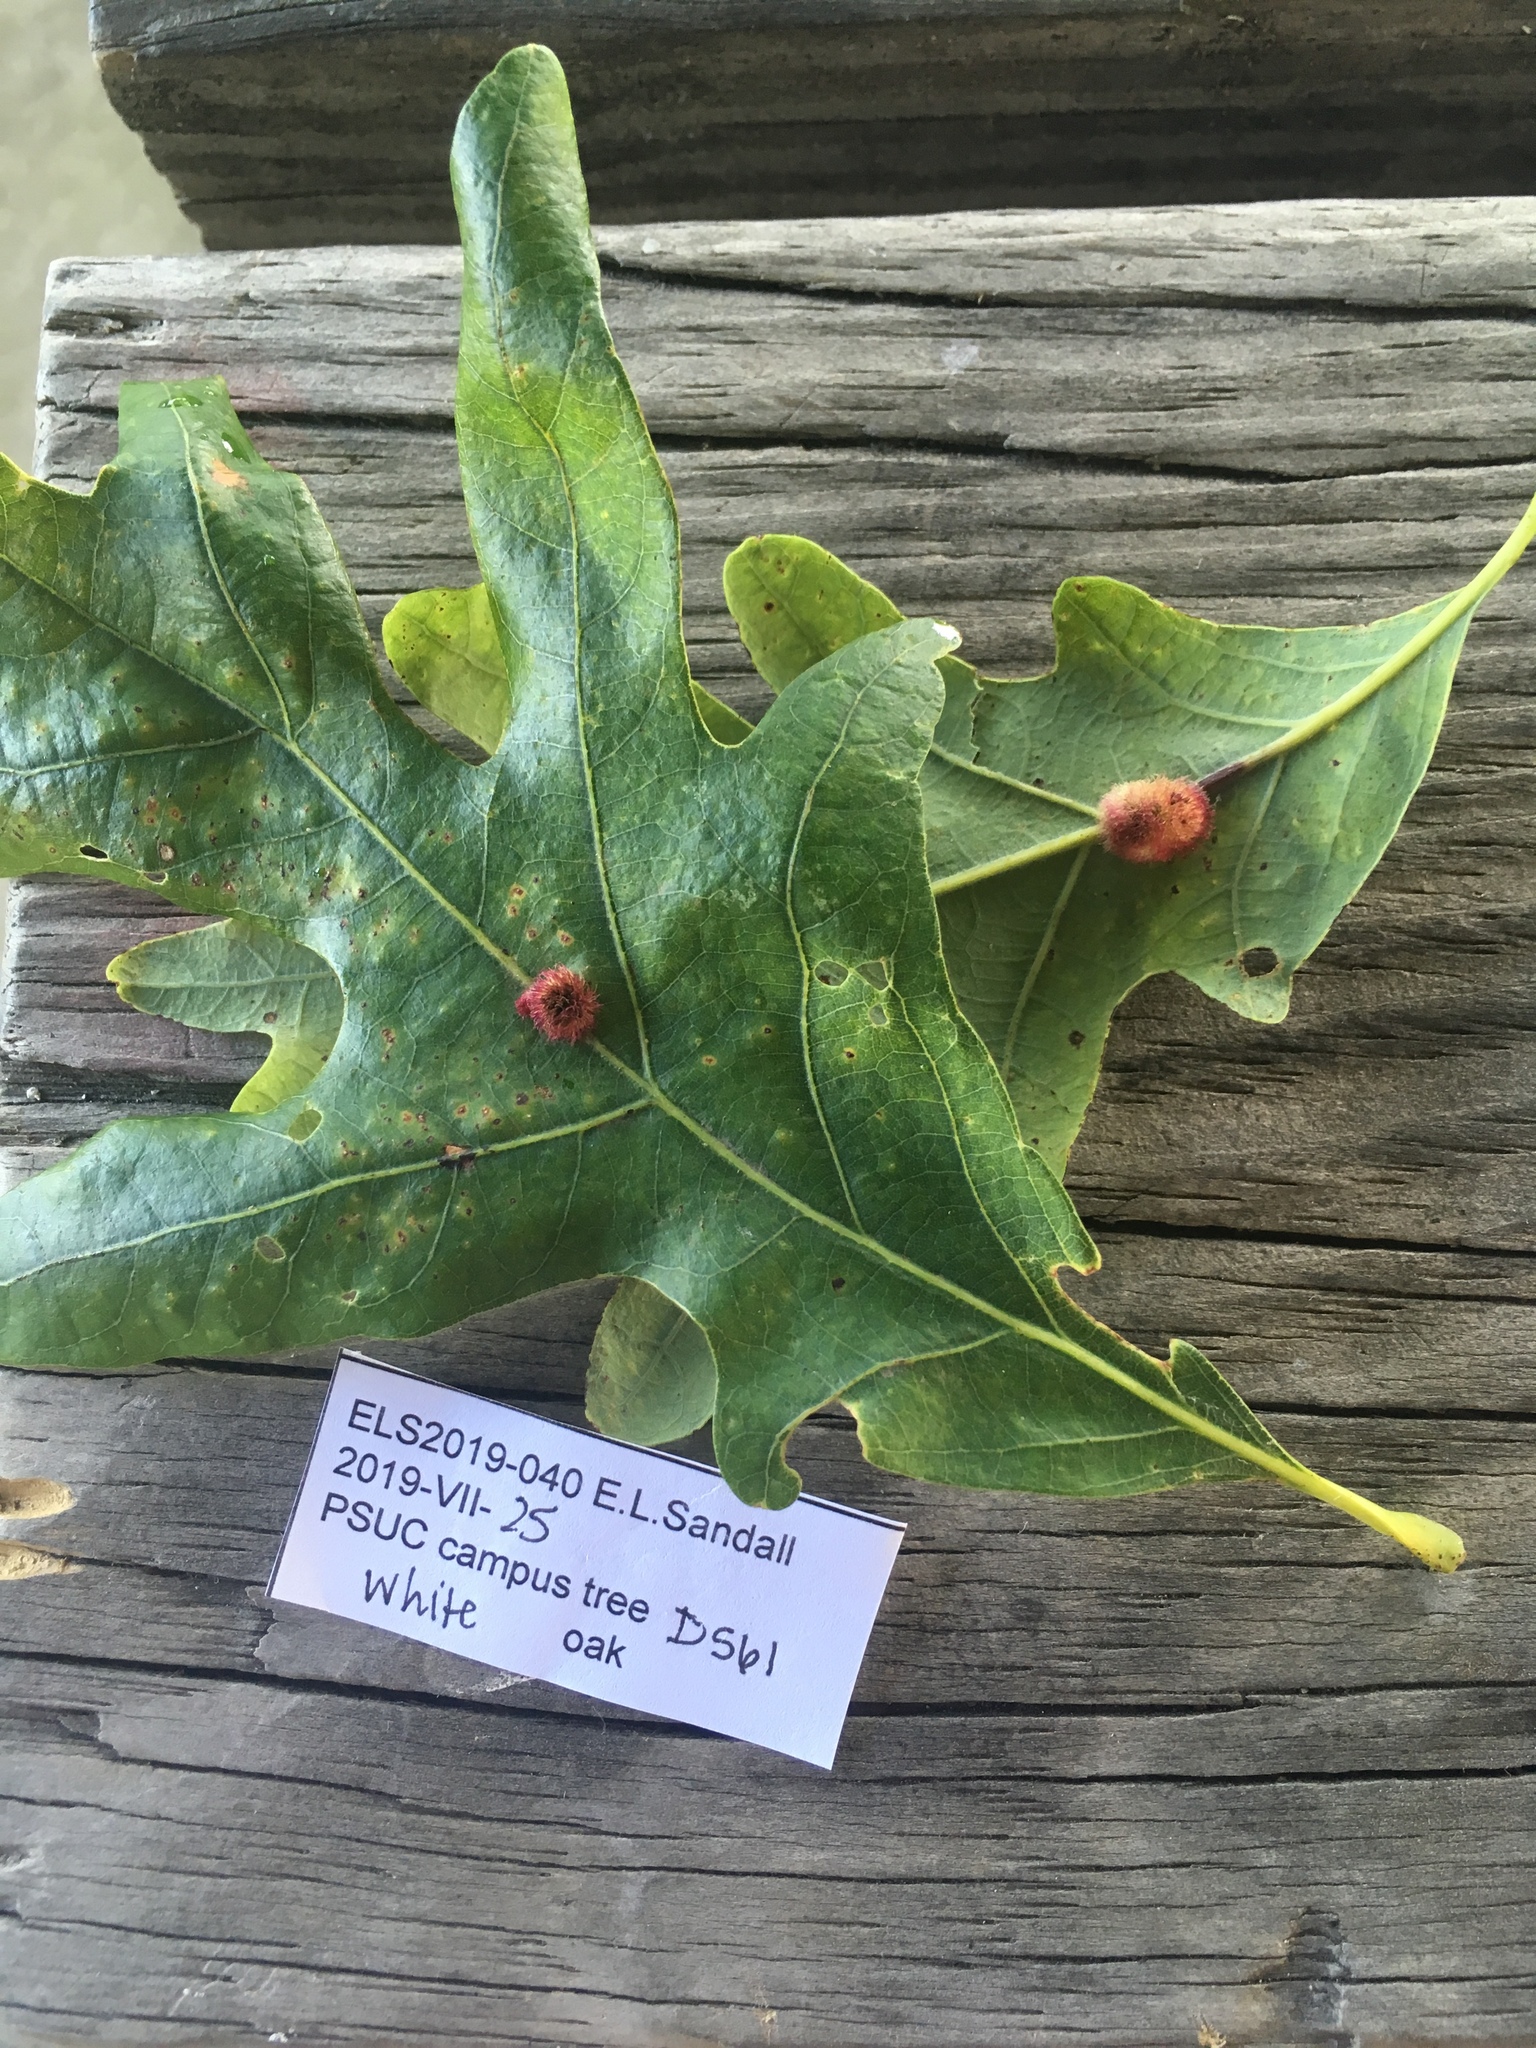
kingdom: Animalia
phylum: Arthropoda
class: Insecta
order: Hymenoptera
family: Cynipidae
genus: Acraspis
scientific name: Acraspis erinacei
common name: Hedgehog gall wasp
